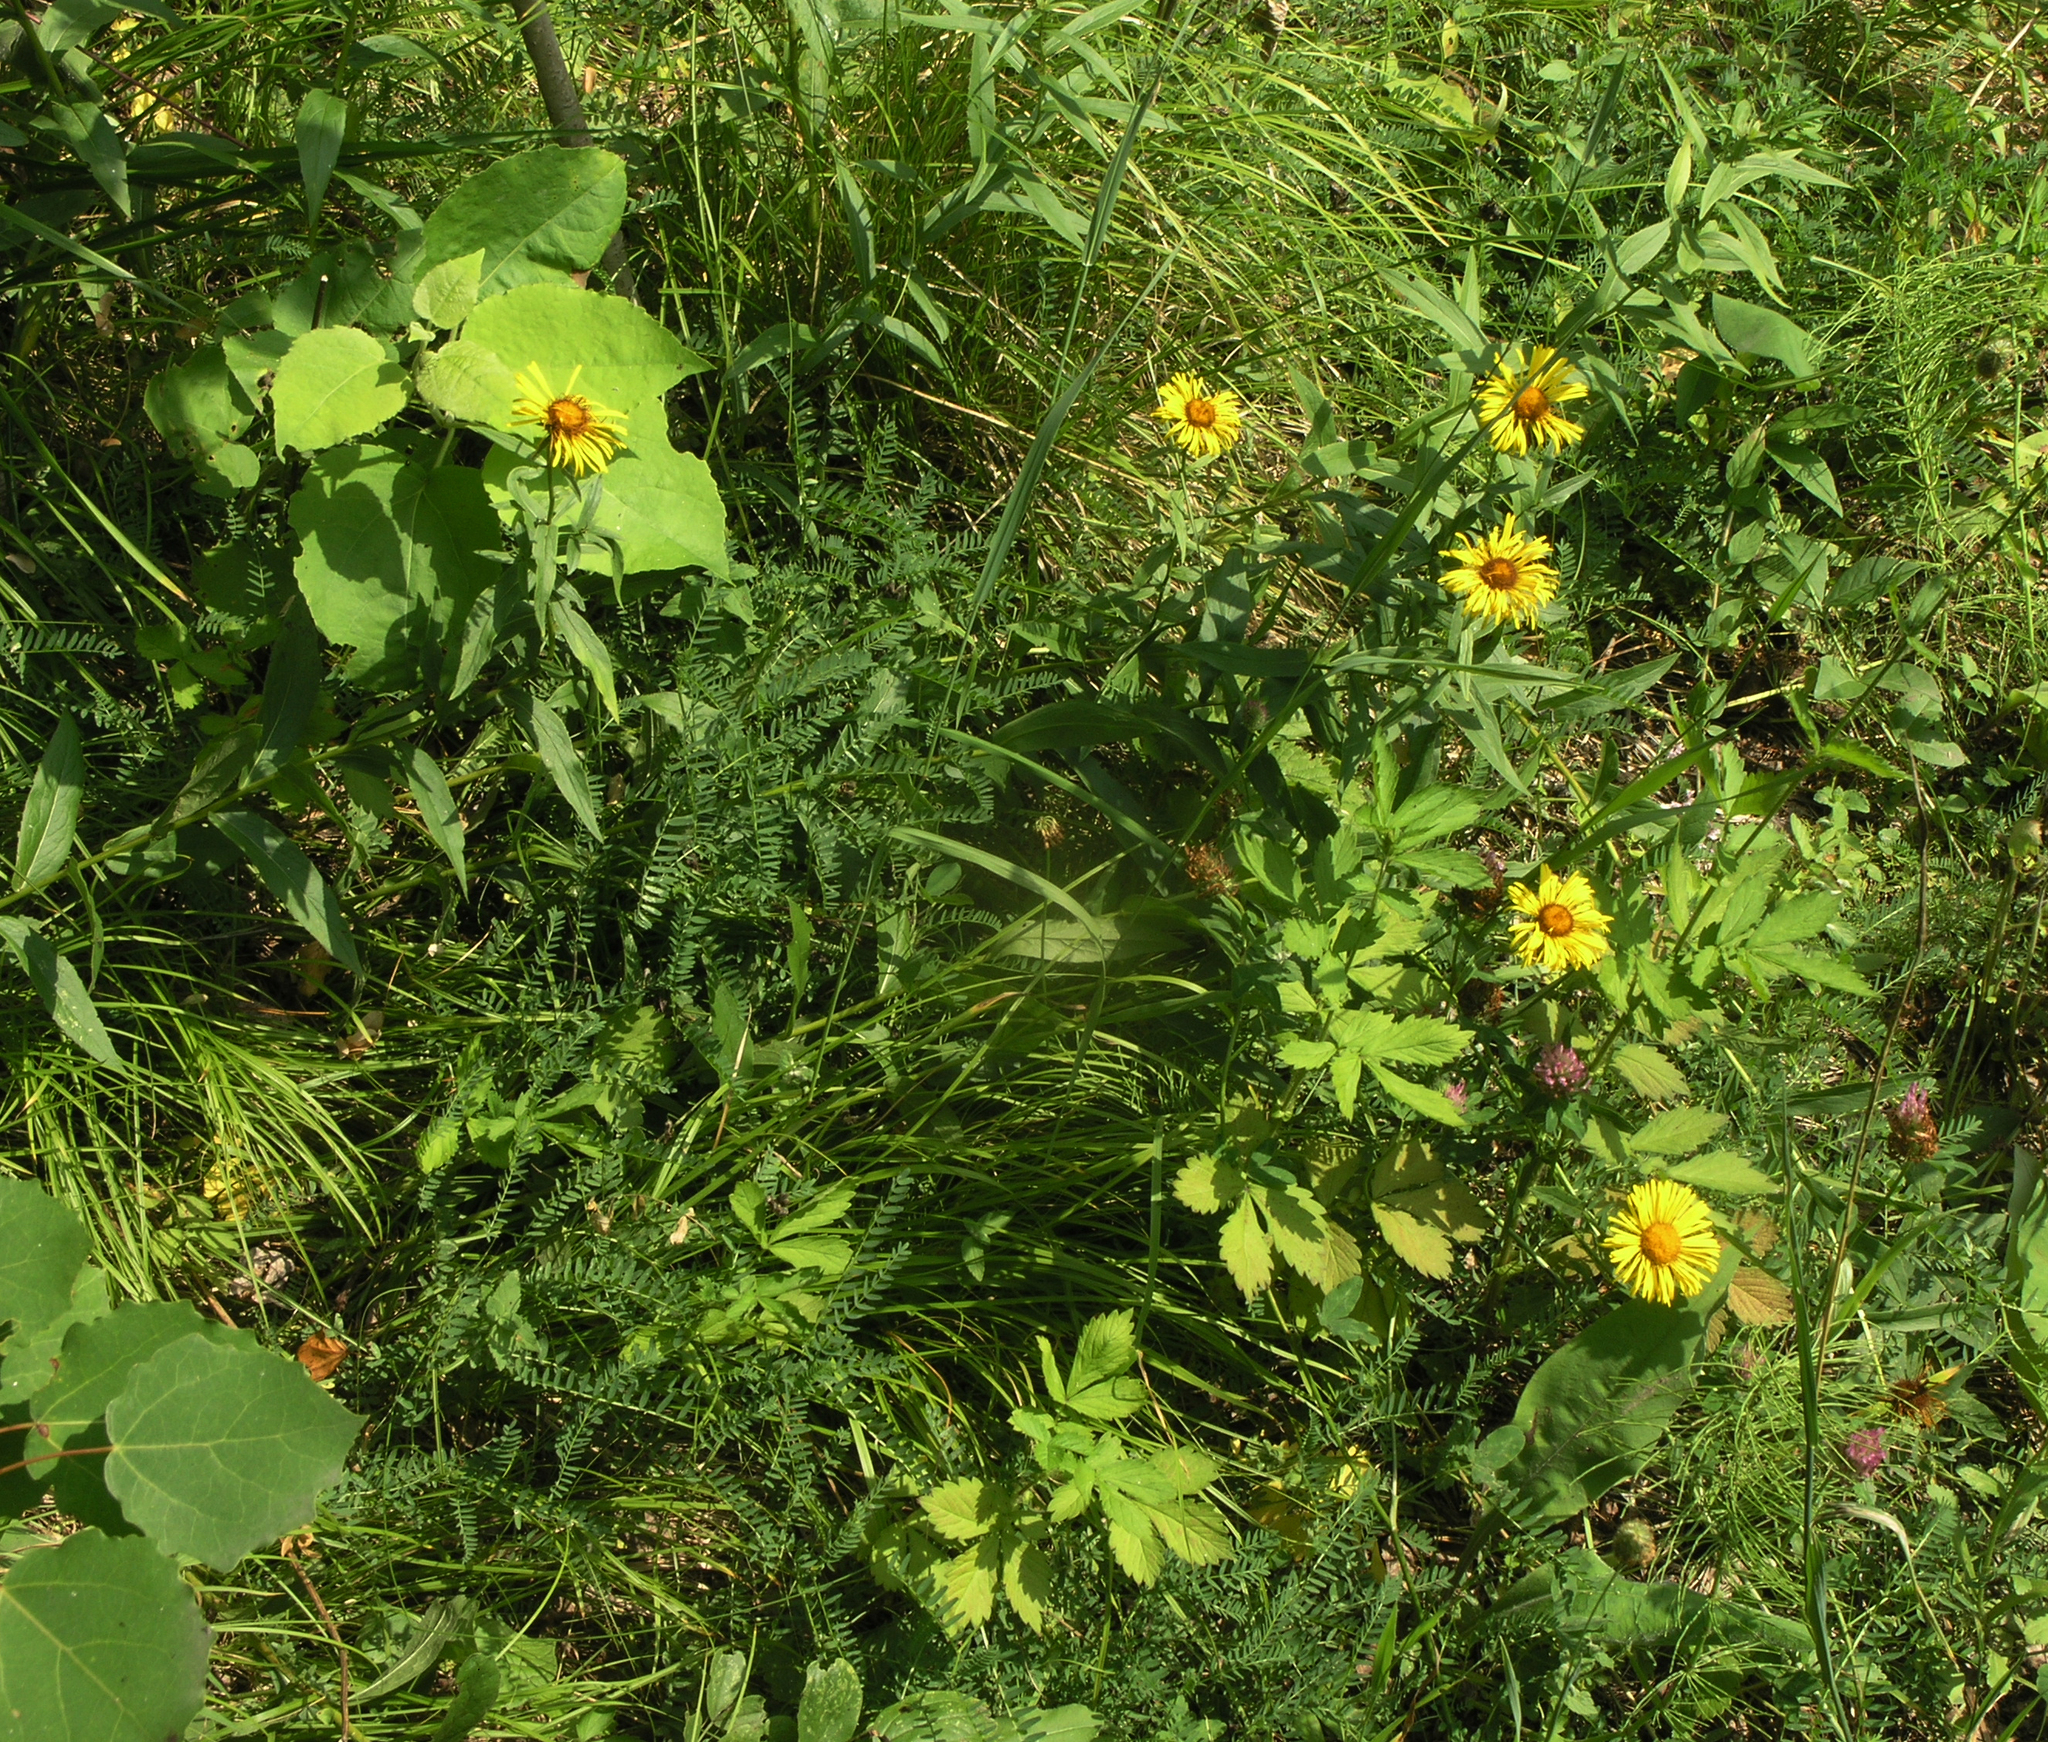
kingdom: Plantae
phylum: Tracheophyta
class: Magnoliopsida
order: Asterales
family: Asteraceae
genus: Pentanema
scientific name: Pentanema salicinum
